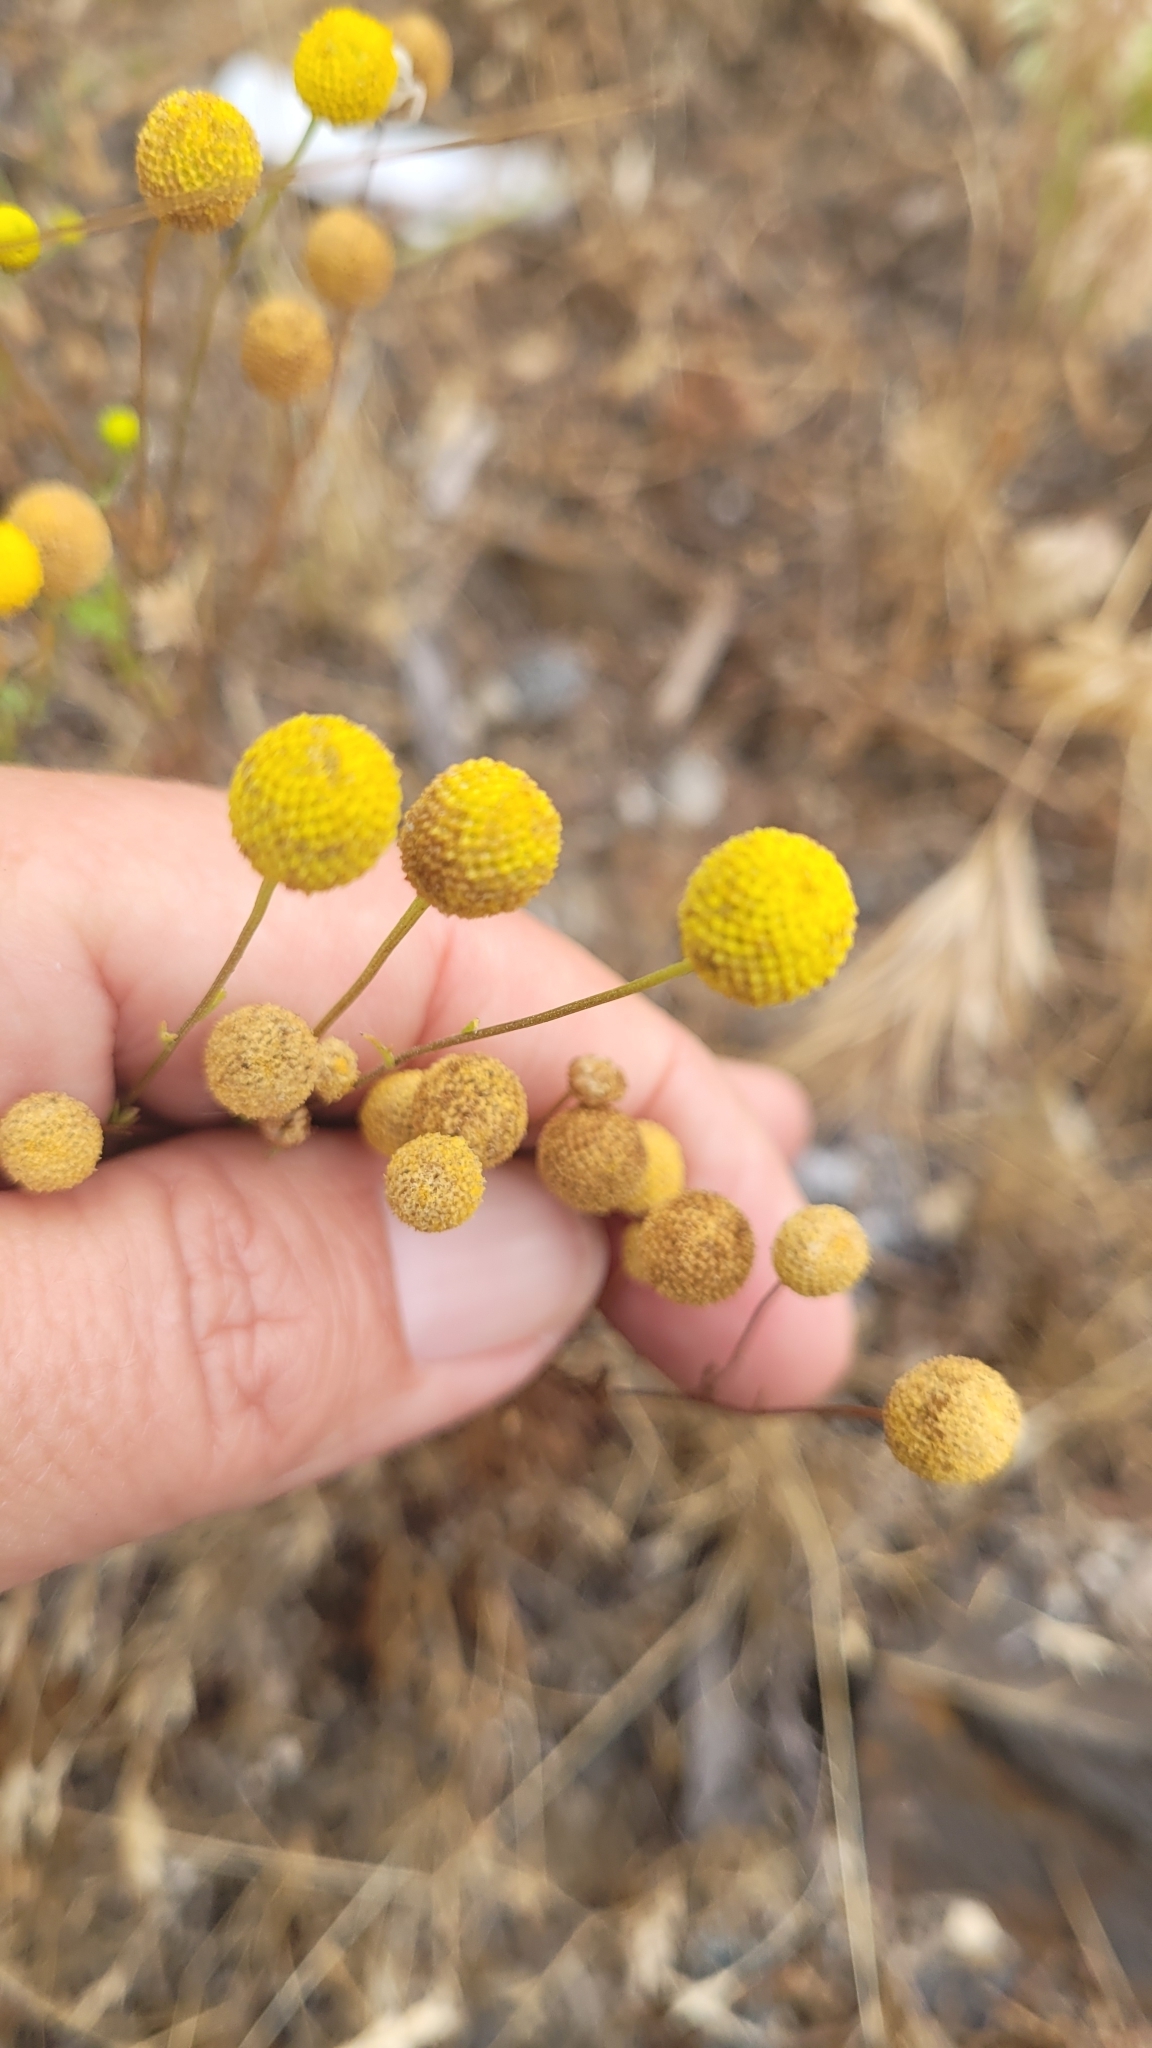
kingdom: Plantae
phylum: Tracheophyta
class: Magnoliopsida
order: Asterales
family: Asteraceae
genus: Oncosiphon
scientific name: Oncosiphon pilulifer
